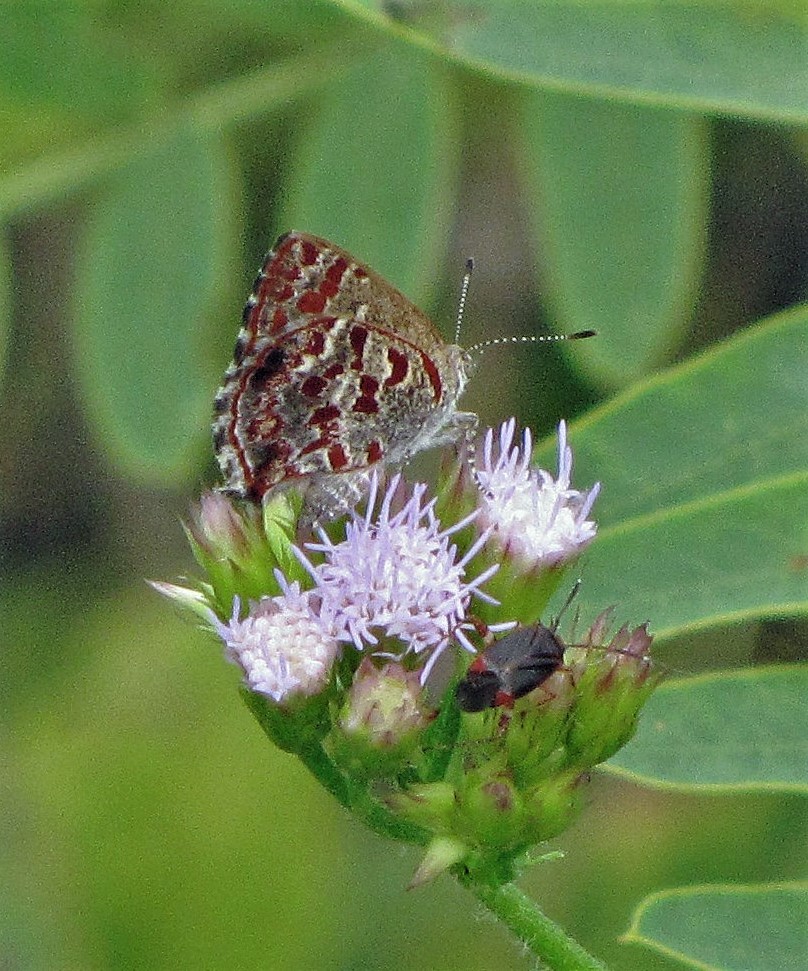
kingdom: Animalia
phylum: Arthropoda
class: Insecta
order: Lepidoptera
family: Lycaenidae
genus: Ministrymon
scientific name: Ministrymon
